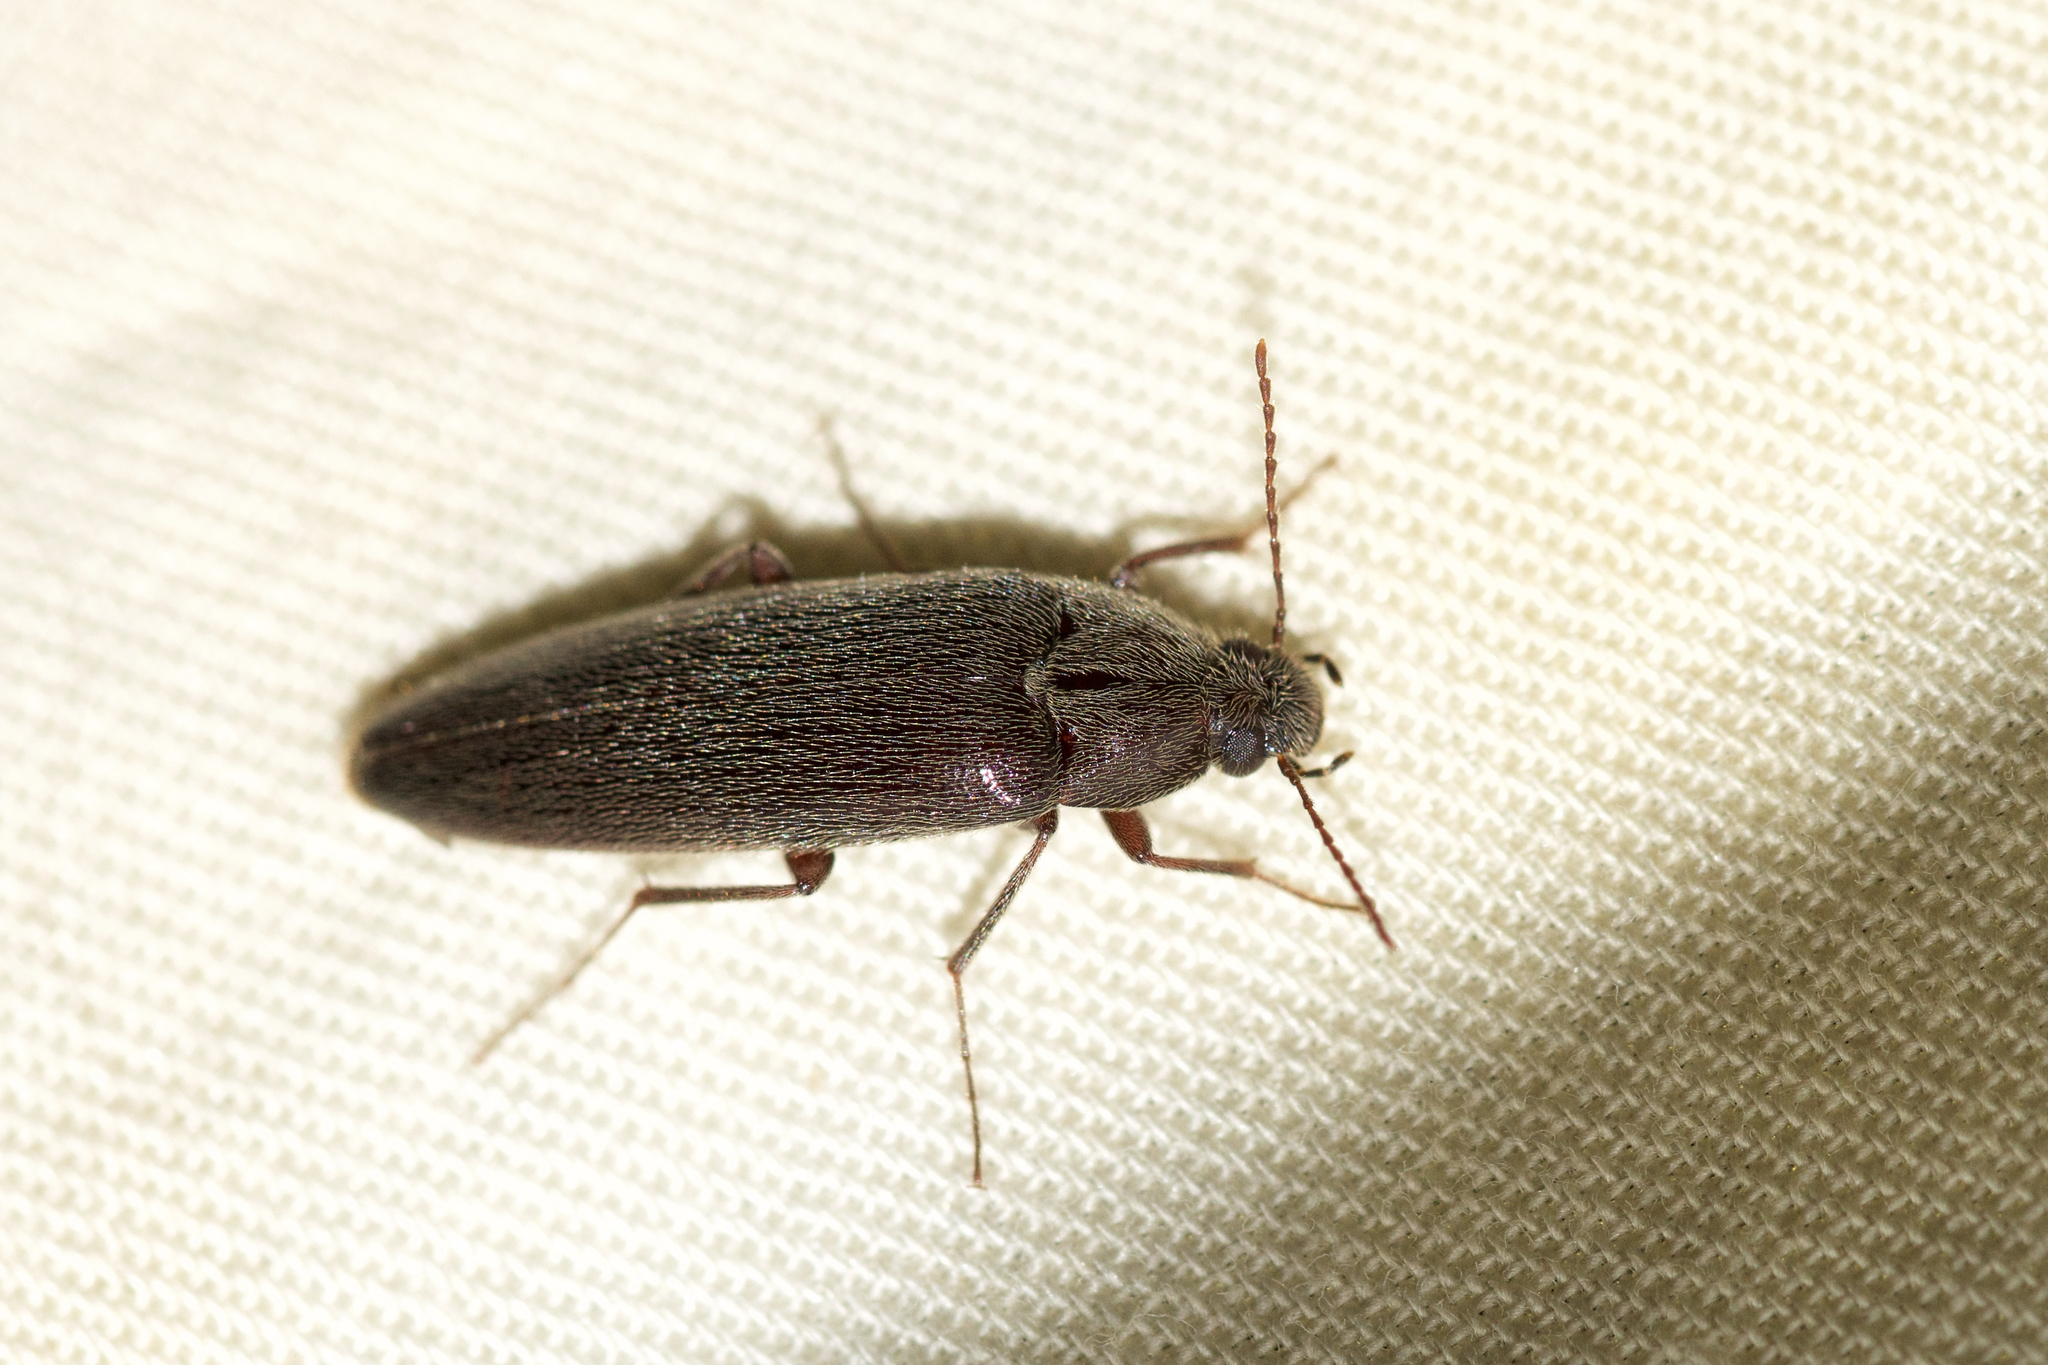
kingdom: Animalia
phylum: Arthropoda
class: Insecta
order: Coleoptera
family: Synchroidae
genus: Synchroa
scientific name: Synchroa punctata
